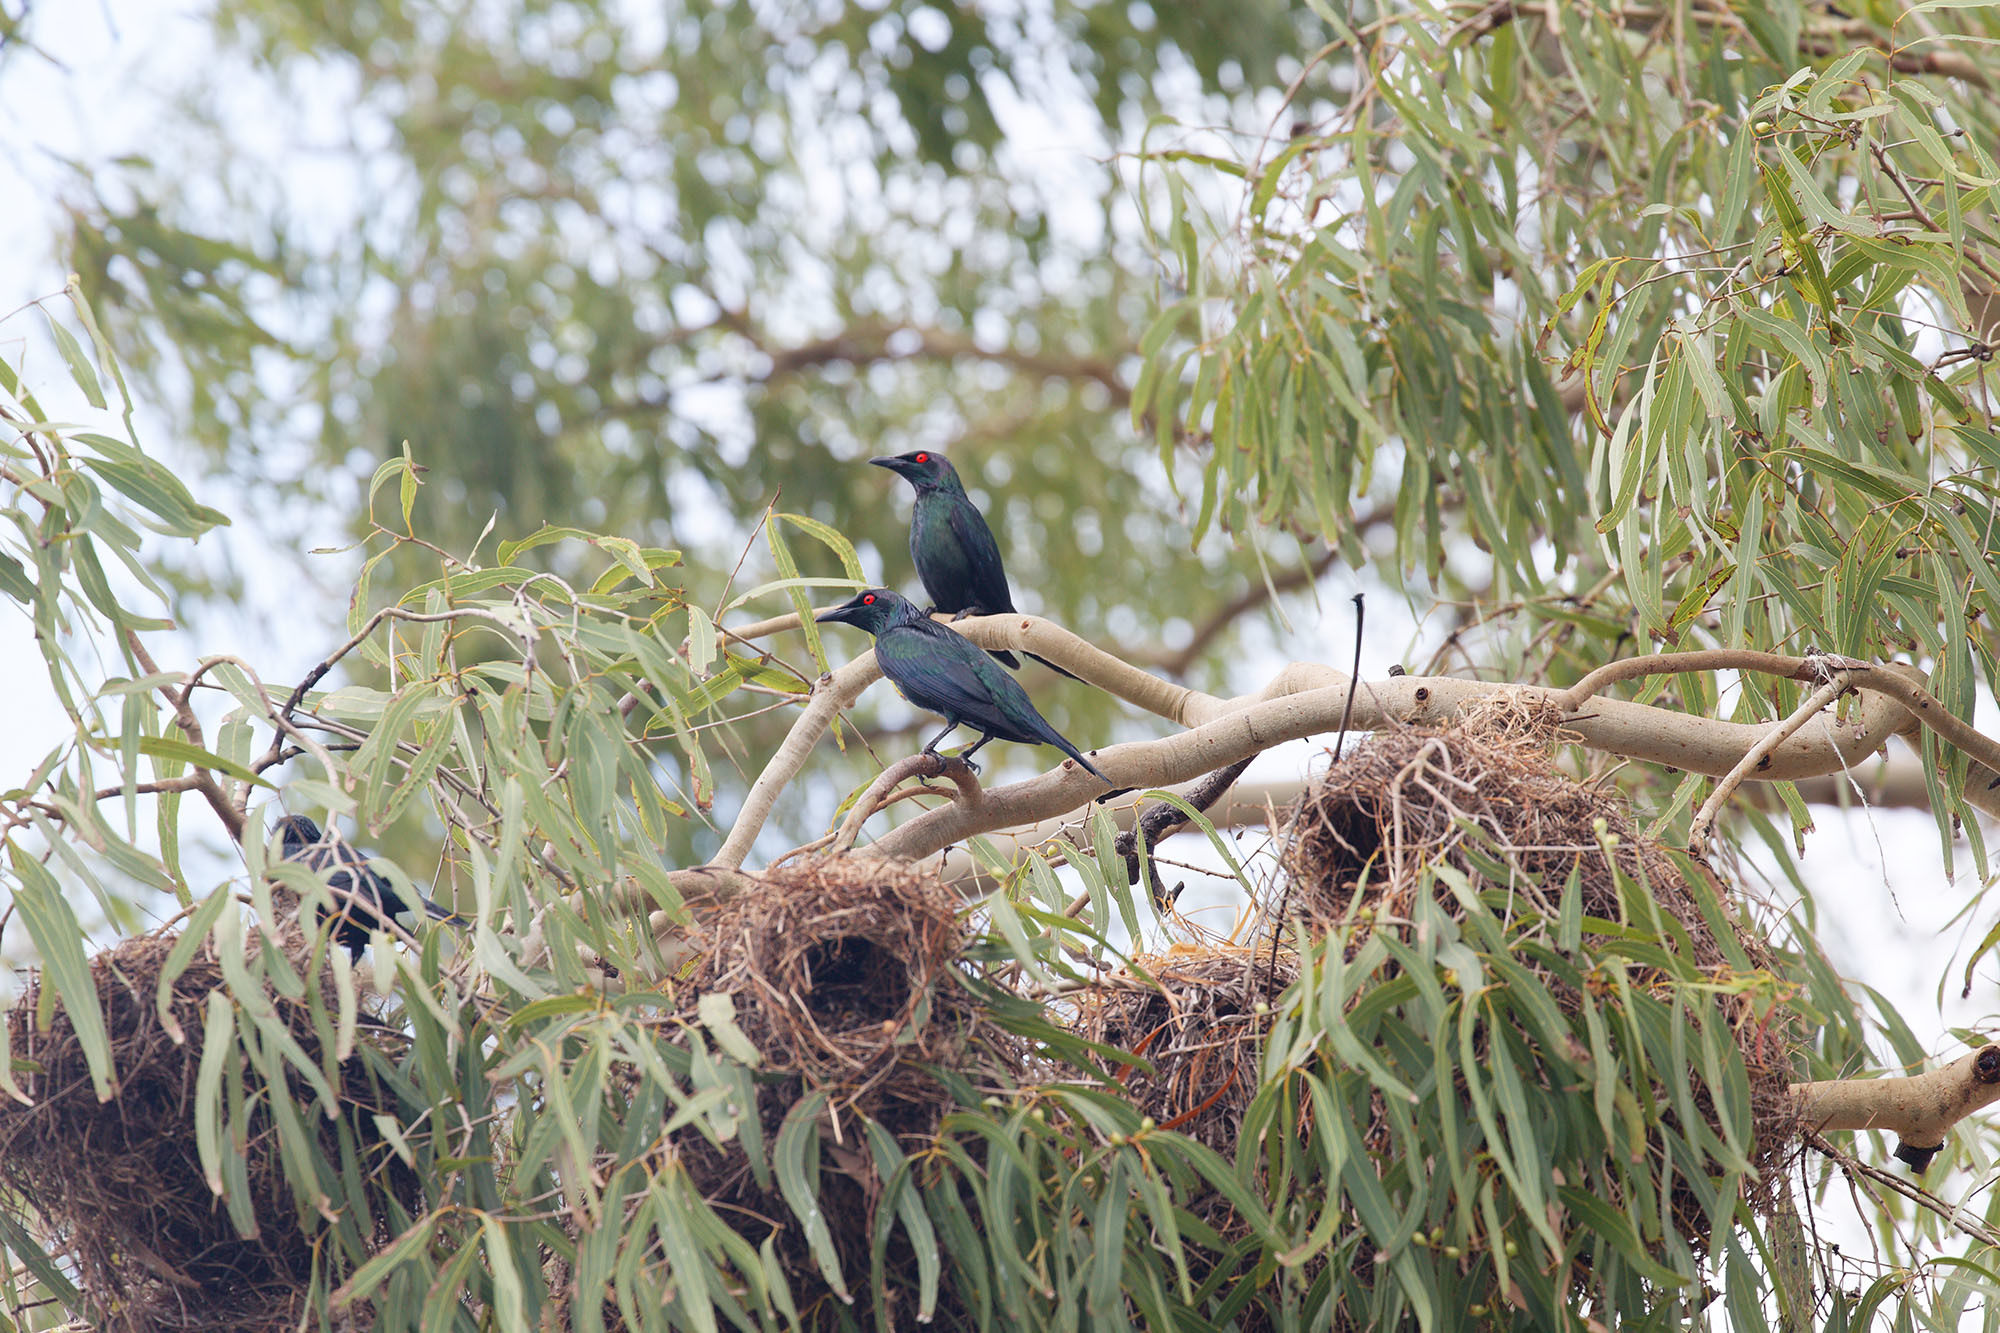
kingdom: Animalia
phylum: Chordata
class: Aves
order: Passeriformes
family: Sturnidae
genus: Aplonis
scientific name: Aplonis metallica
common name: Metallic starling
